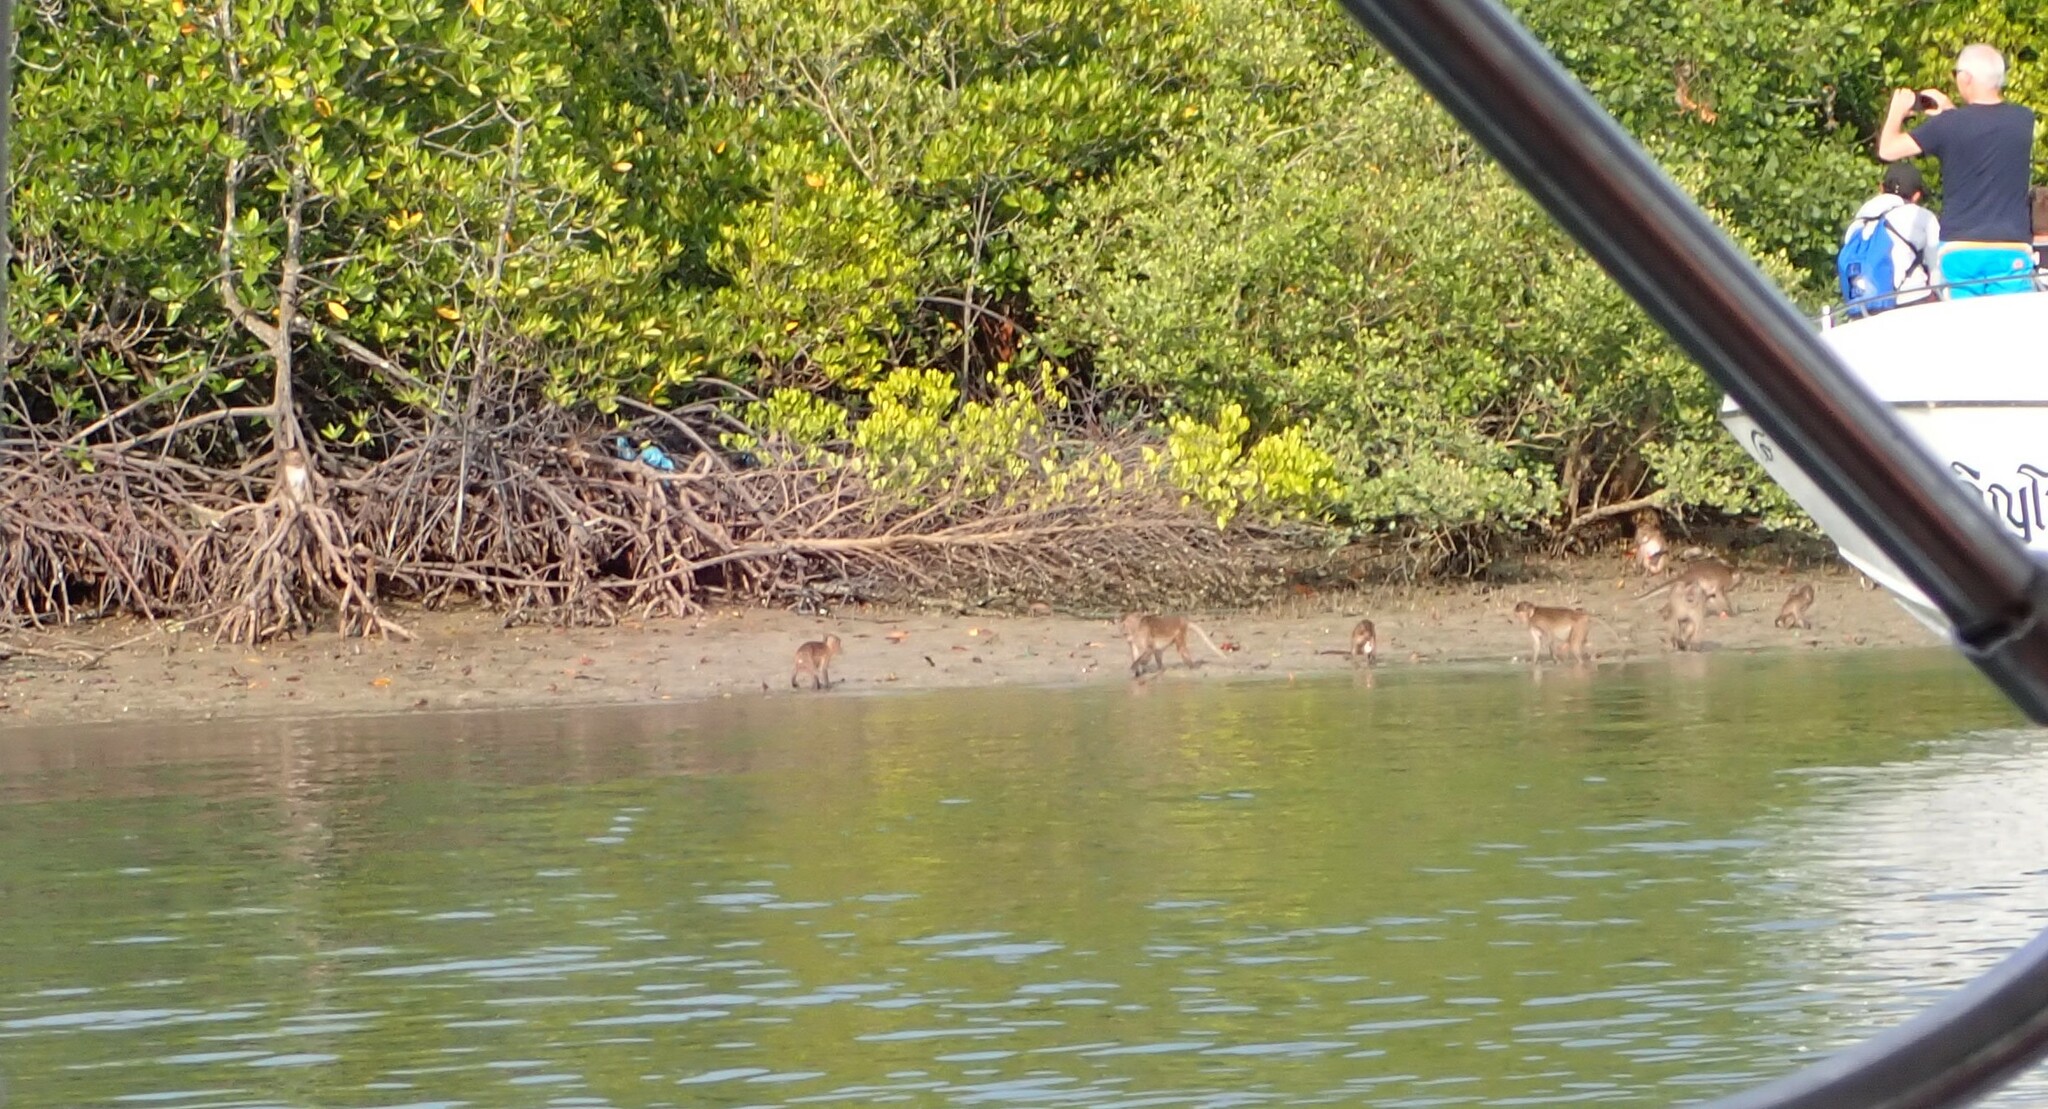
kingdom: Animalia
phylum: Chordata
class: Mammalia
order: Primates
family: Cercopithecidae
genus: Macaca
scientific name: Macaca fascicularis
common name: Crab-eating macaque
